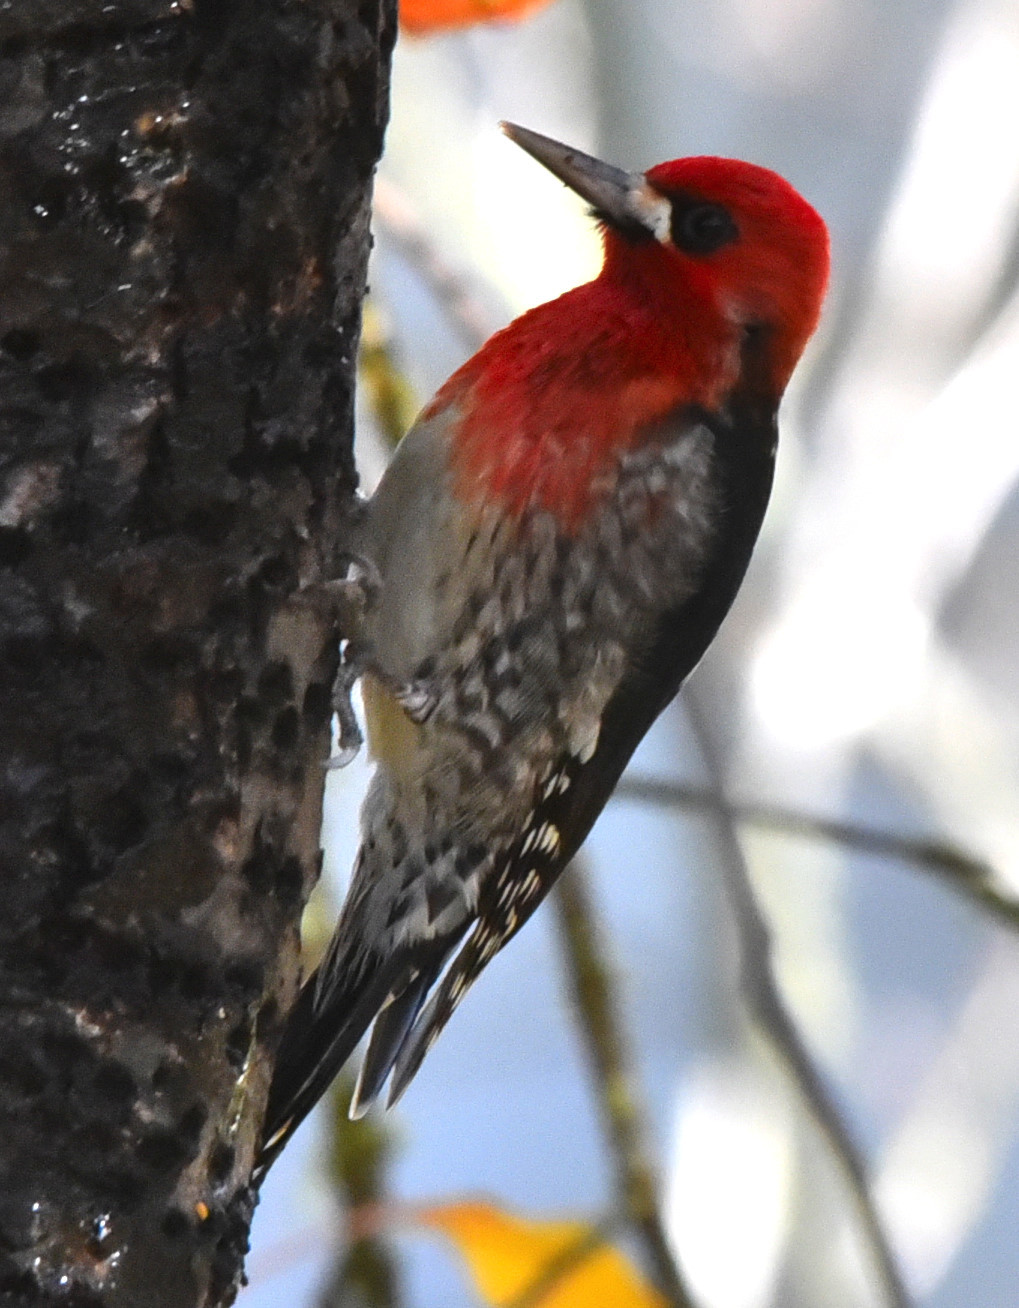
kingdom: Animalia
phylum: Chordata
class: Aves
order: Piciformes
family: Picidae
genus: Sphyrapicus
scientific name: Sphyrapicus ruber
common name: Red-breasted sapsucker
